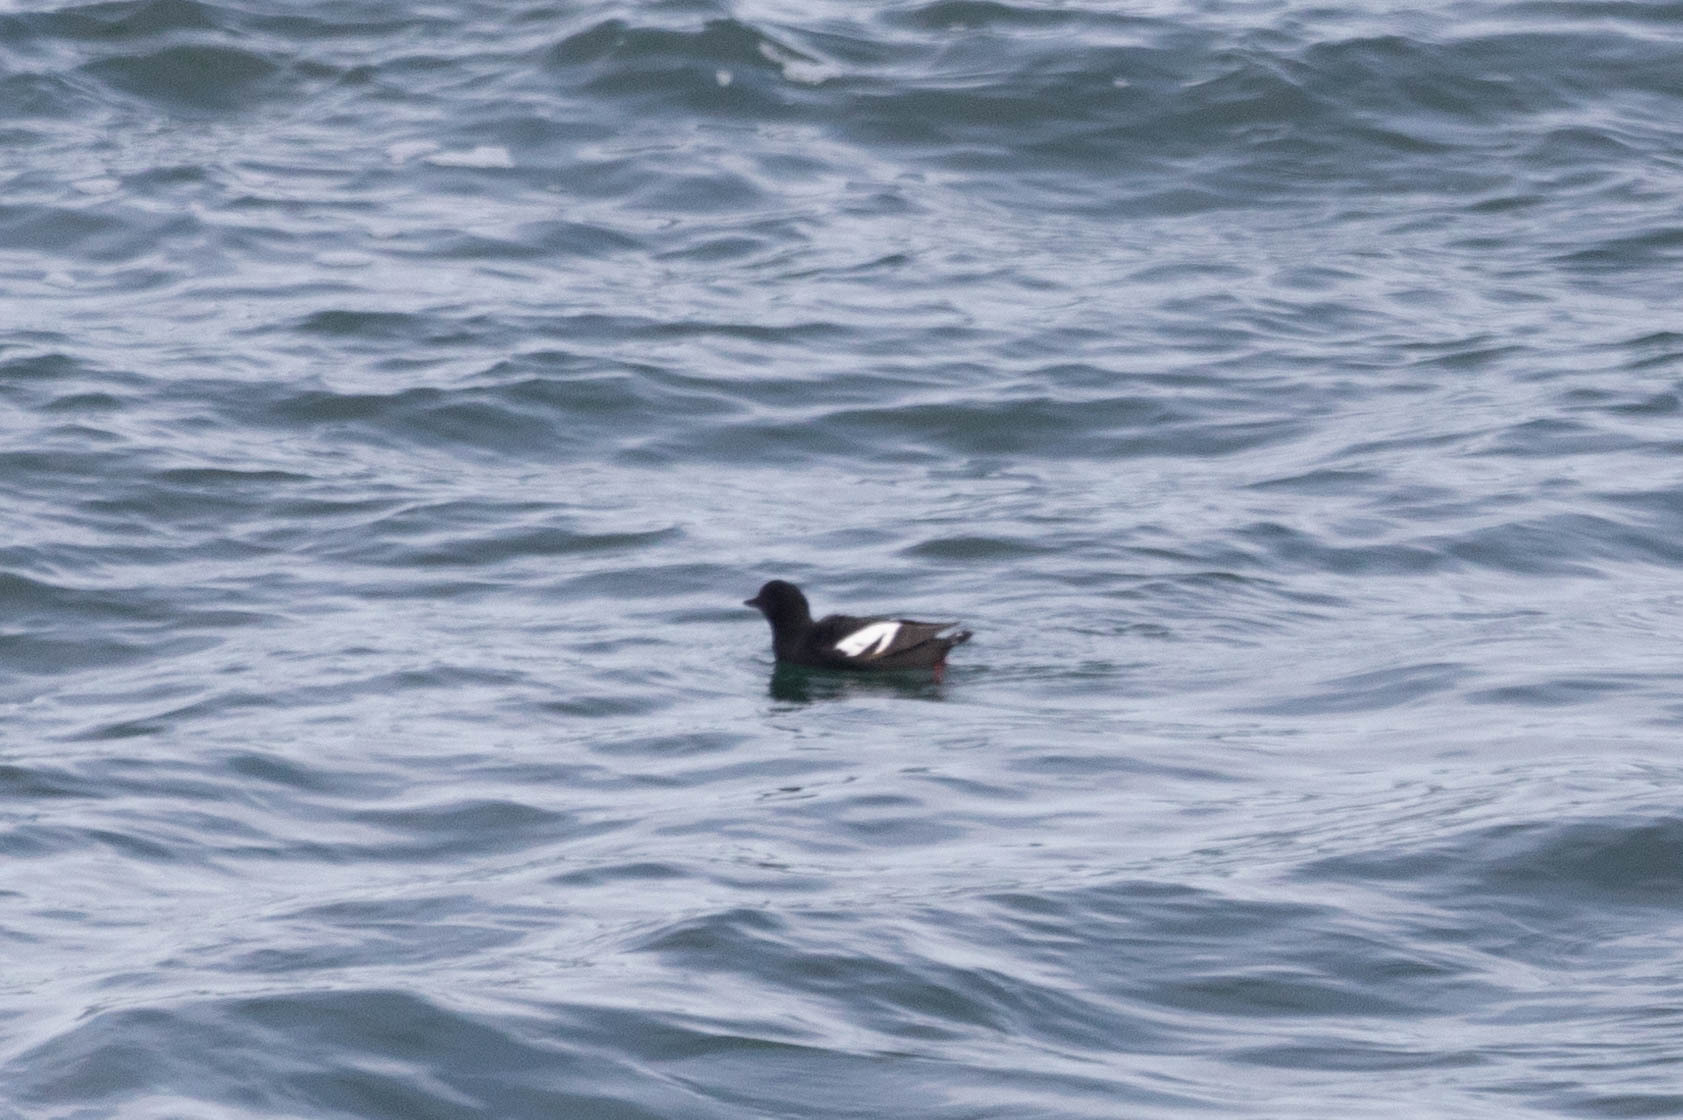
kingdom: Animalia
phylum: Chordata
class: Aves
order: Charadriiformes
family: Alcidae
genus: Cepphus
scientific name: Cepphus columba
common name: Pigeon guillemot
